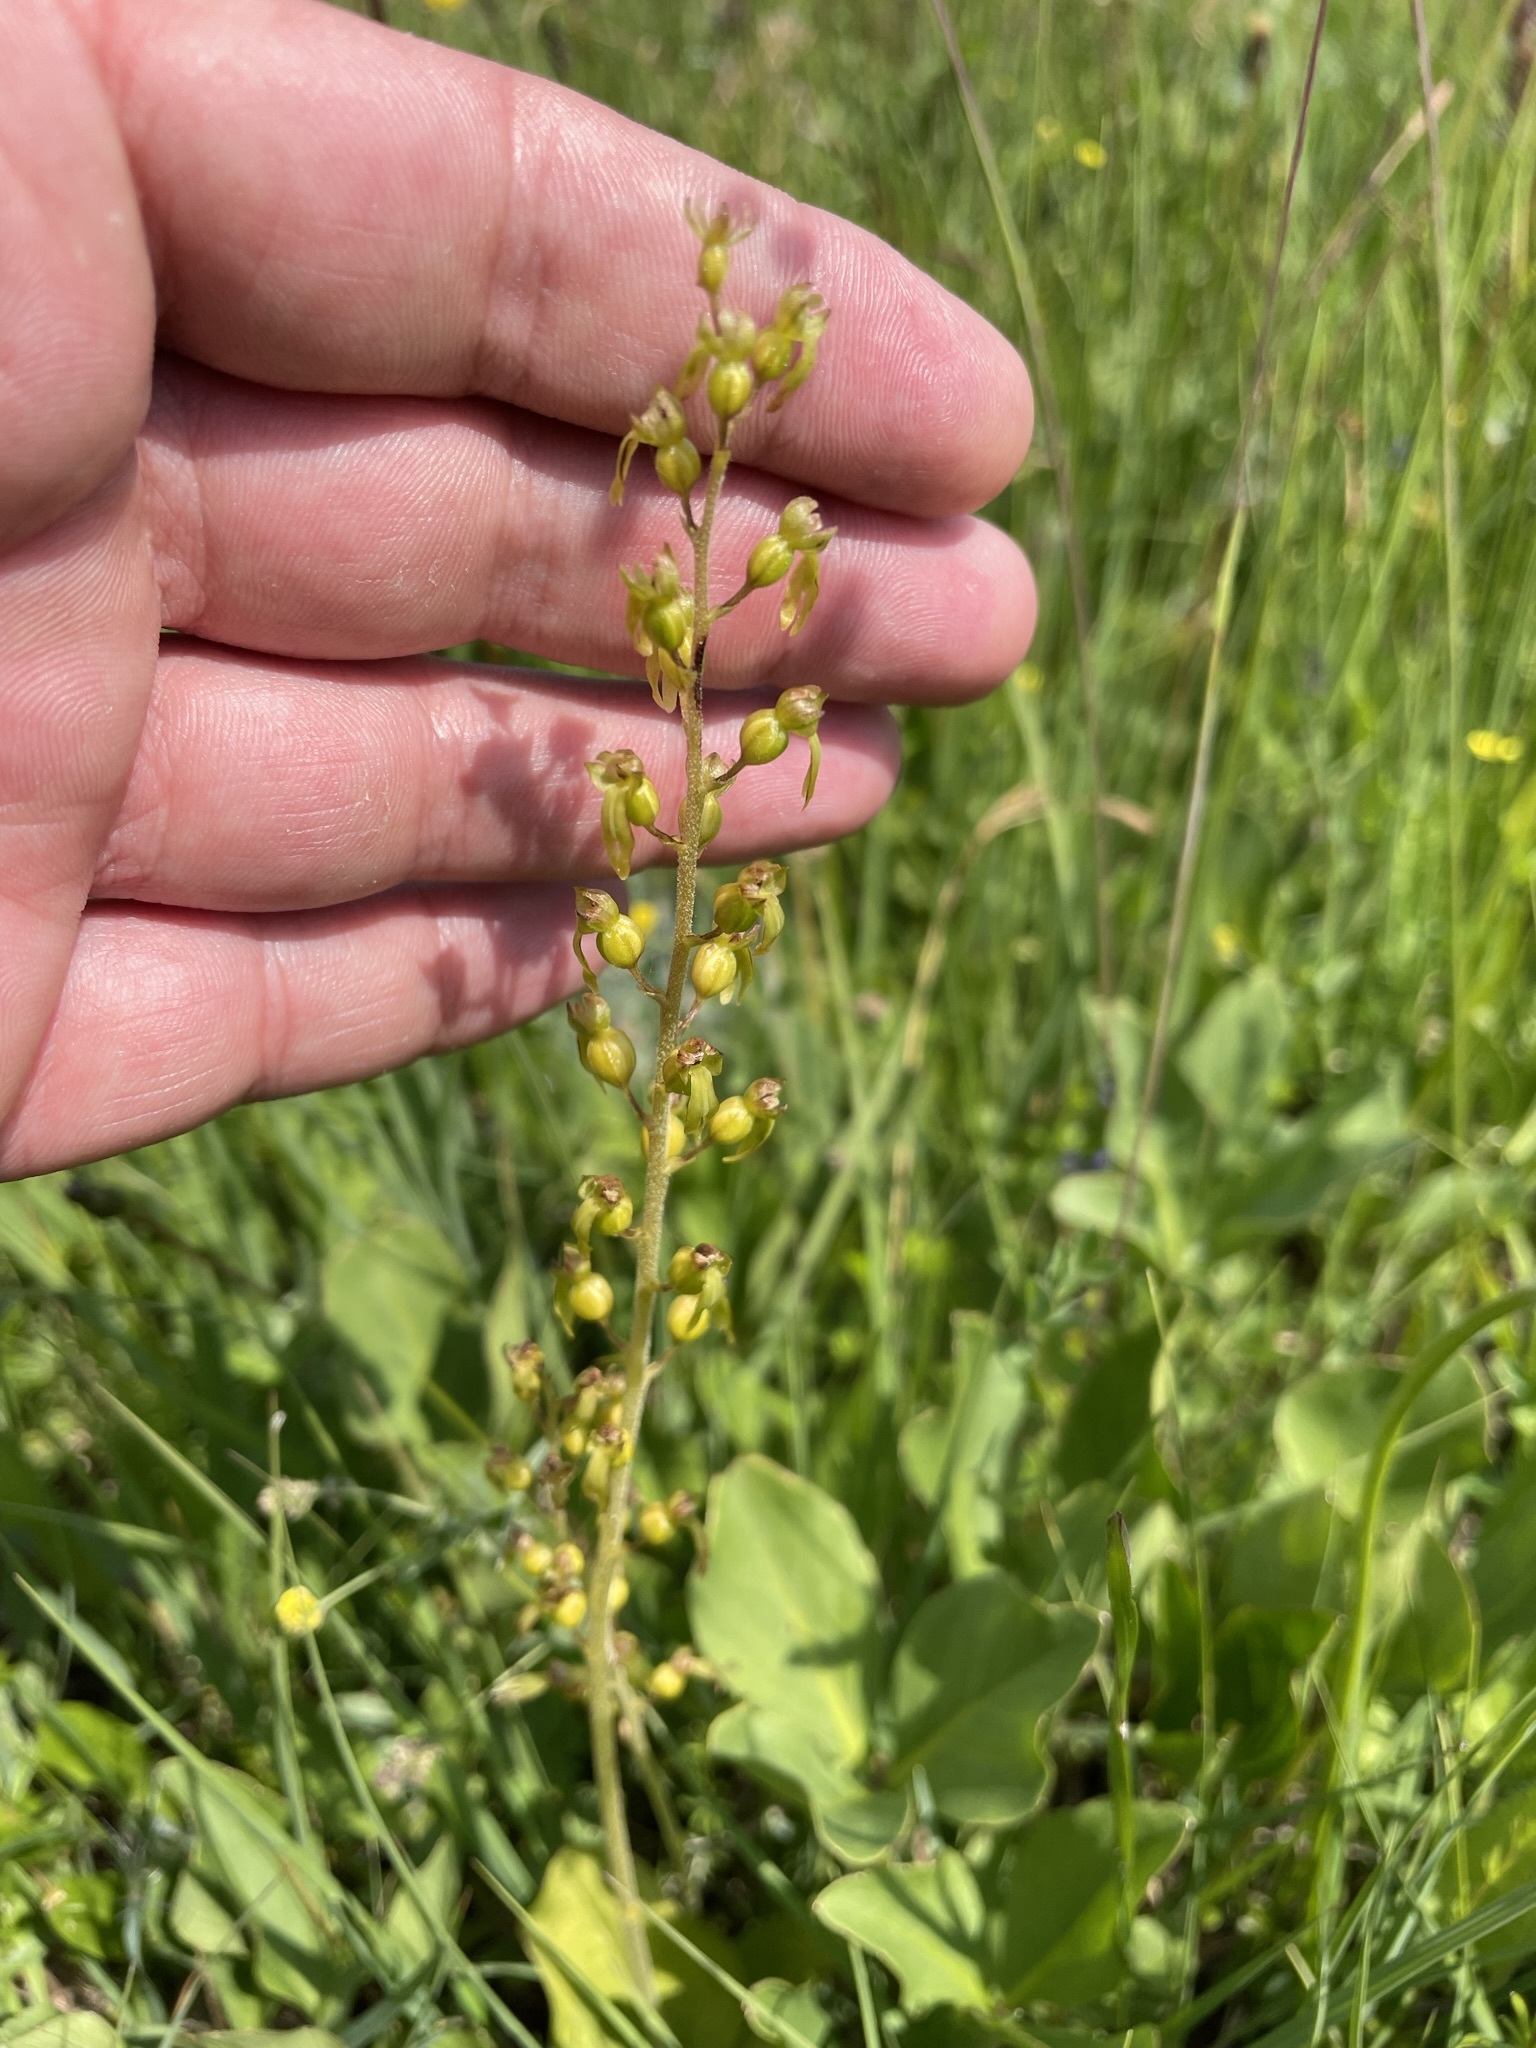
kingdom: Plantae
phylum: Tracheophyta
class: Liliopsida
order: Asparagales
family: Orchidaceae
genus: Neottia
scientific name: Neottia ovata
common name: Common twayblade
